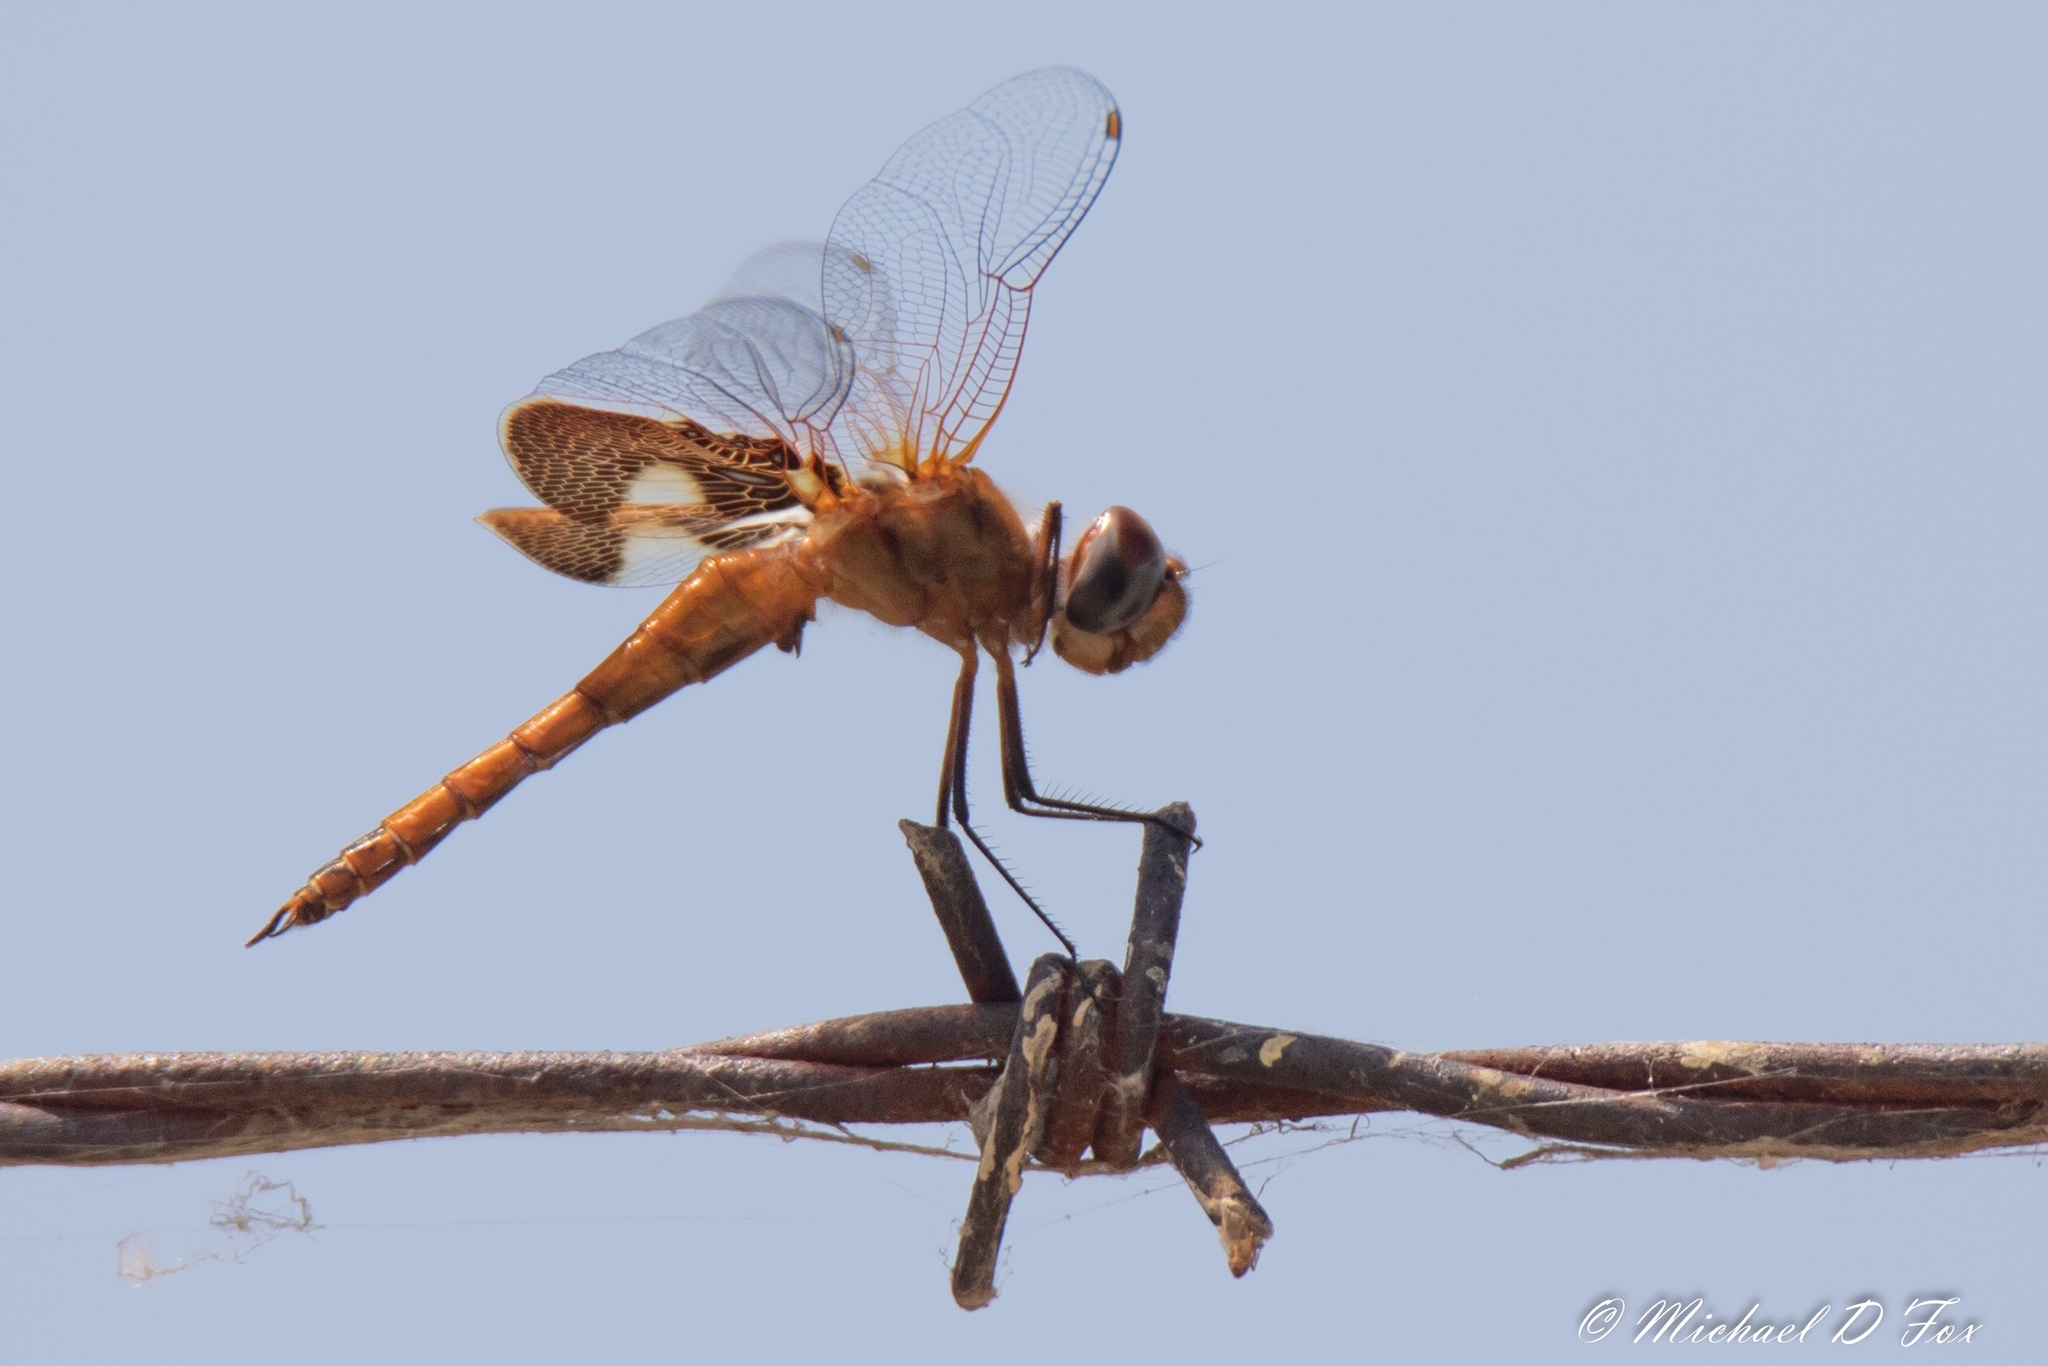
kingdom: Animalia
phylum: Arthropoda
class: Insecta
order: Odonata
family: Libellulidae
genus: Tramea
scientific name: Tramea onusta
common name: Red saddlebags
